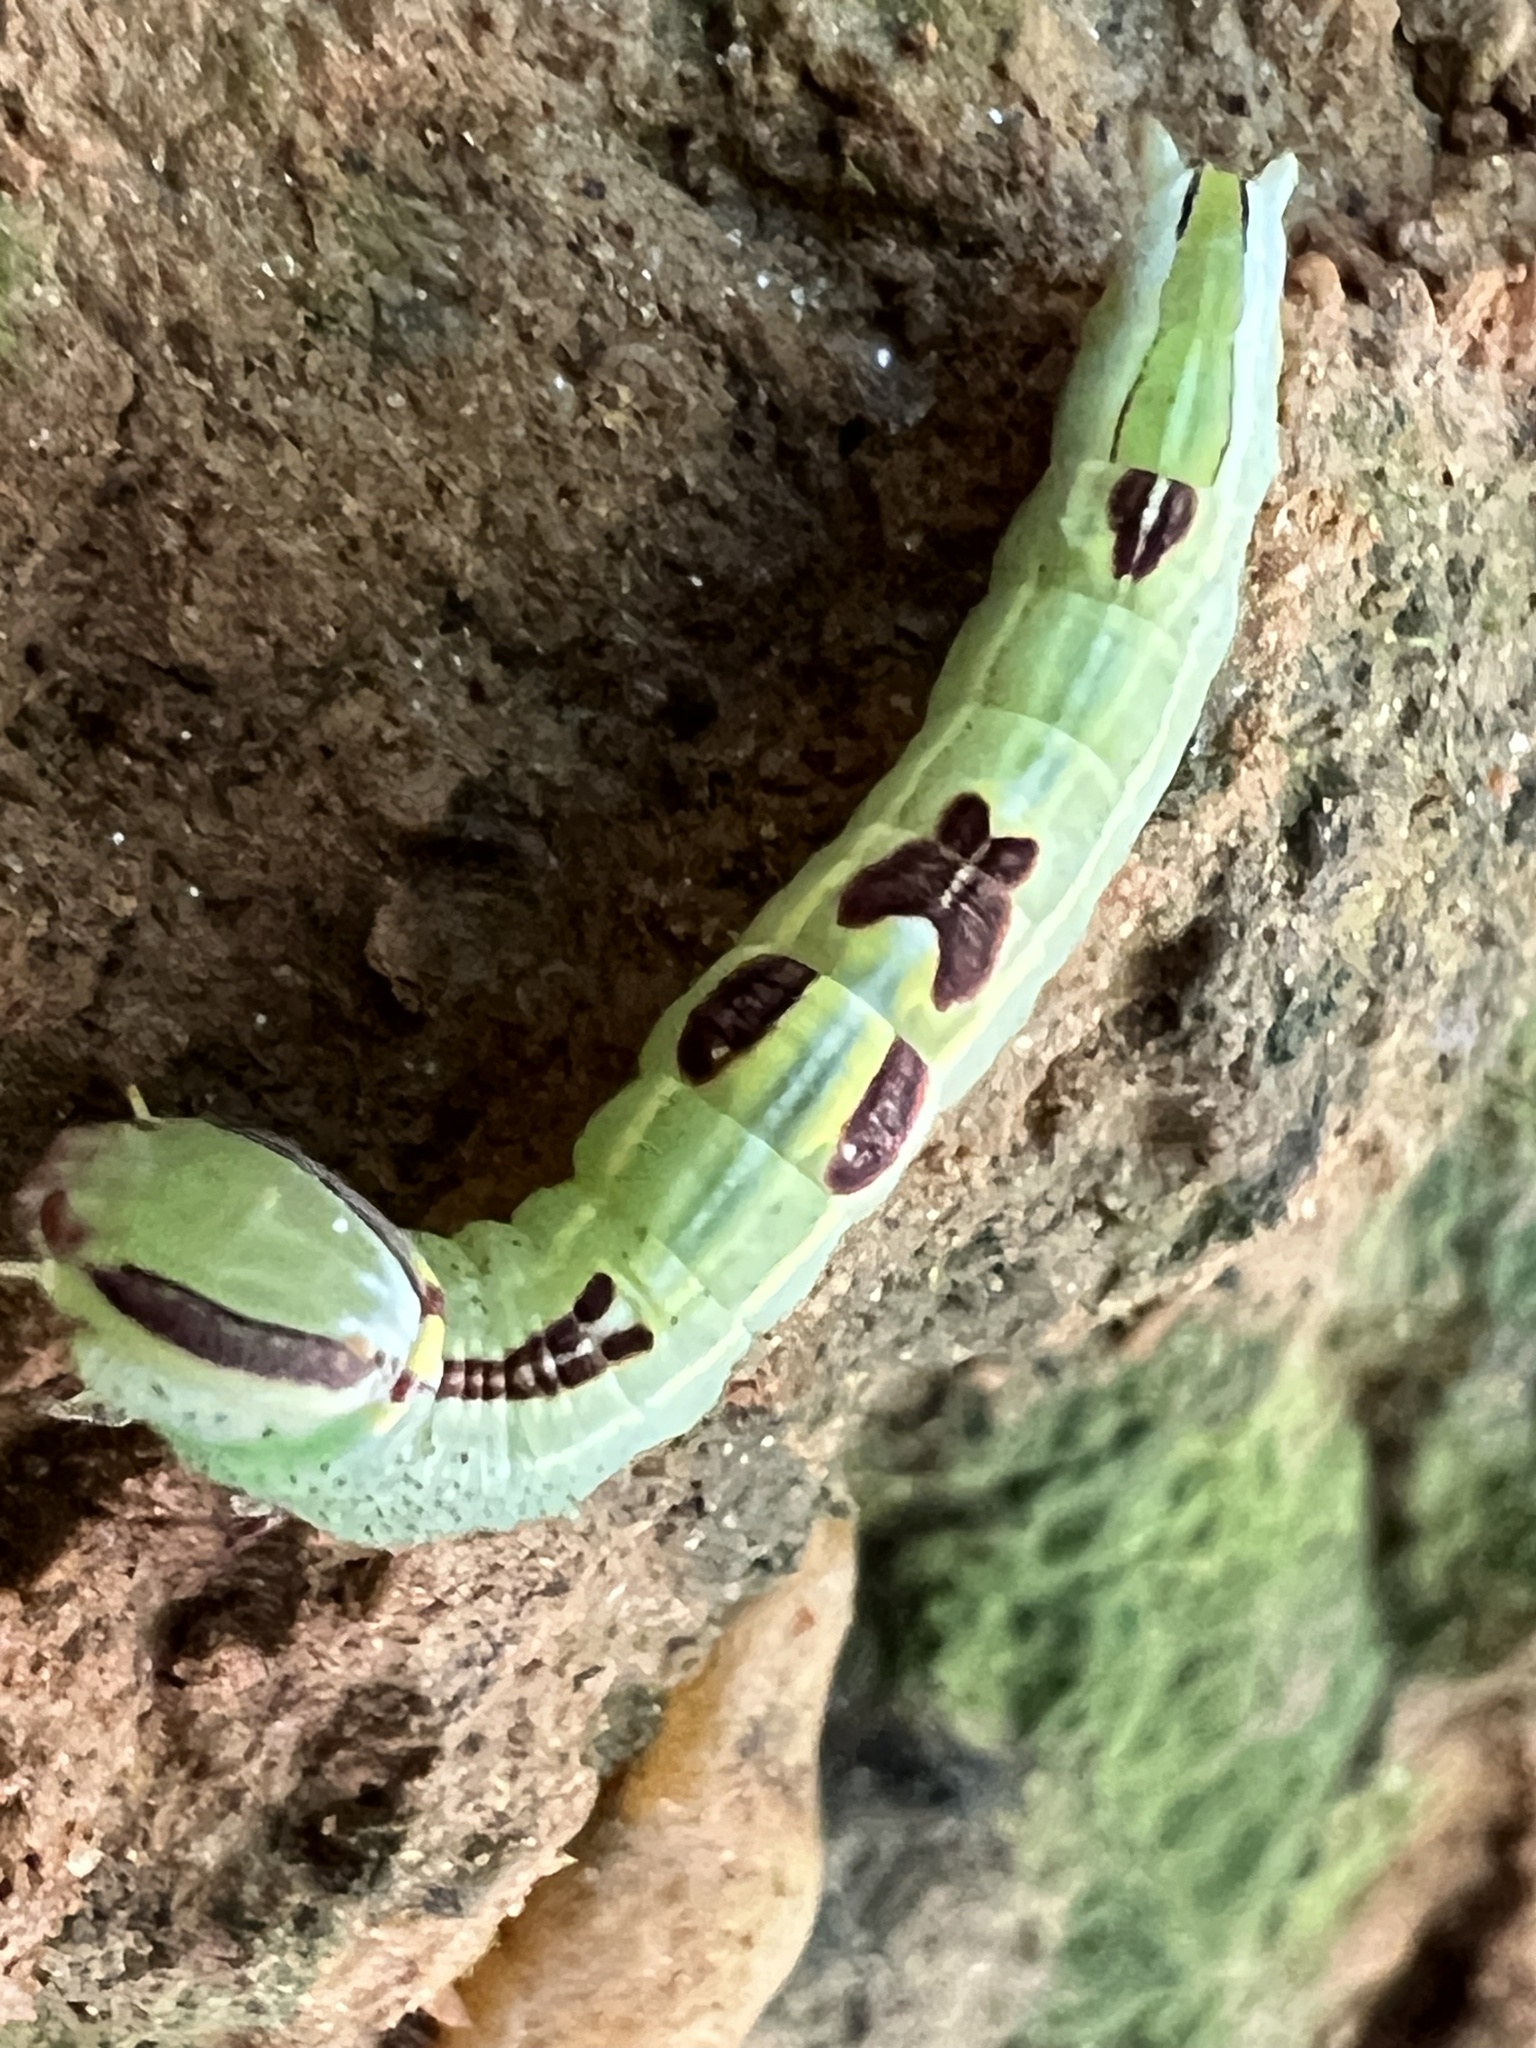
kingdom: Animalia
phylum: Arthropoda
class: Insecta
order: Lepidoptera
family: Notodontidae
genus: Disphragis
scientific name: Disphragis Cecrita guttivitta
